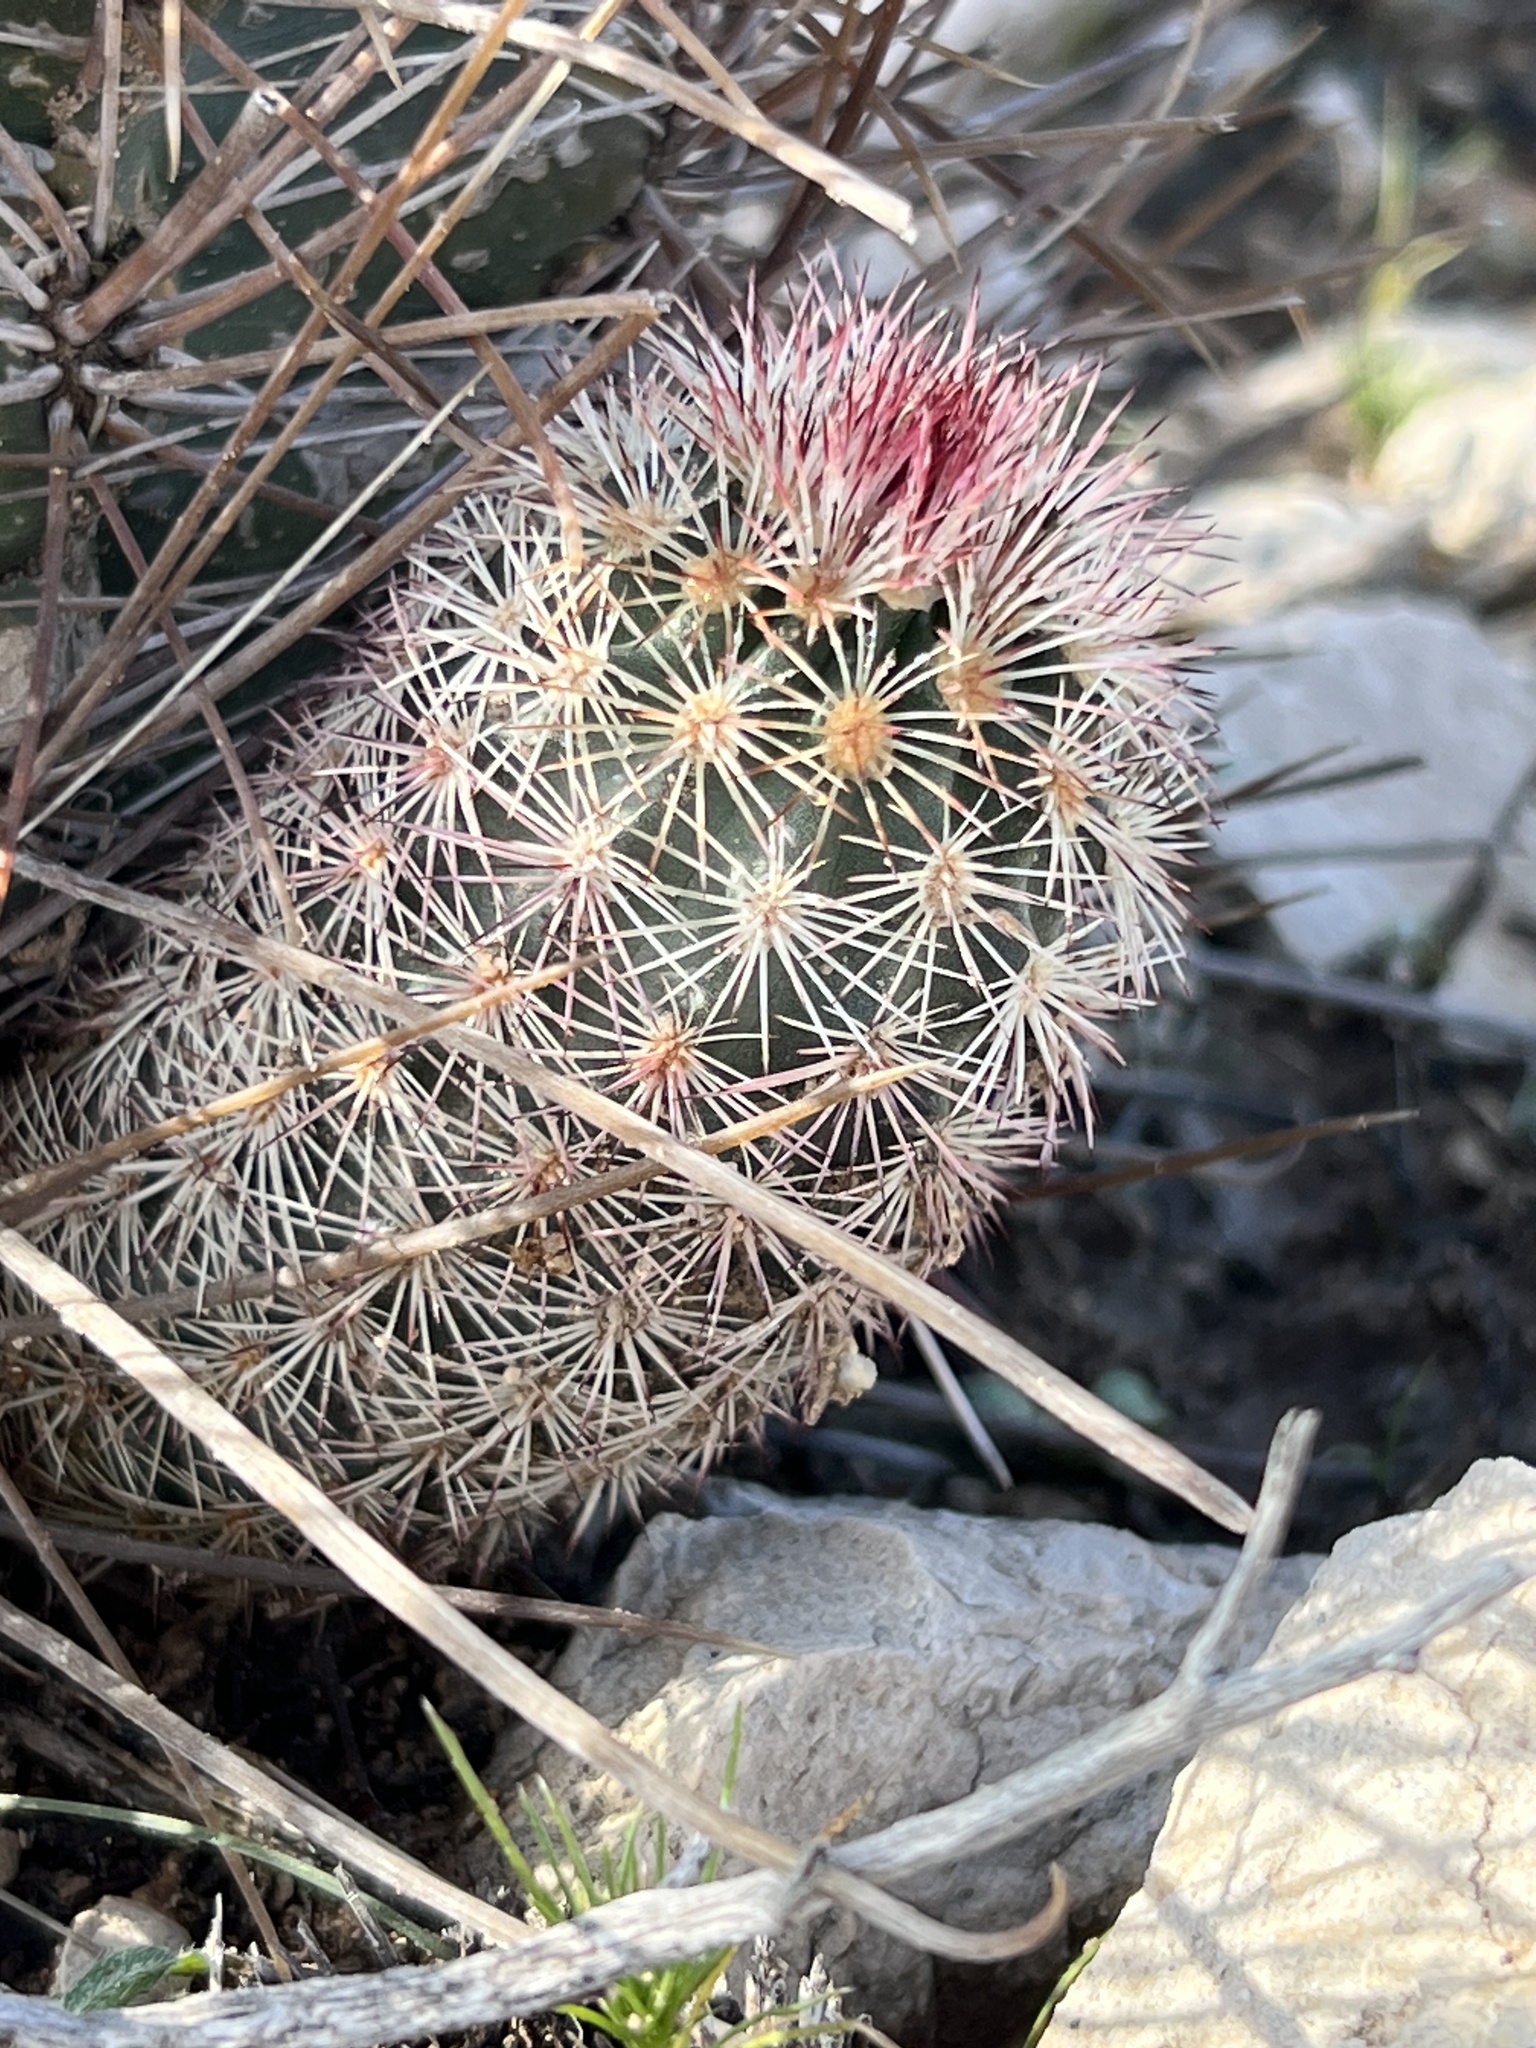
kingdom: Plantae
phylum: Tracheophyta
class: Magnoliopsida
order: Caryophyllales
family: Cactaceae
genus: Echinocereus
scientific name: Echinocereus dasyacanthus
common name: Spiny hedgehog cactus
